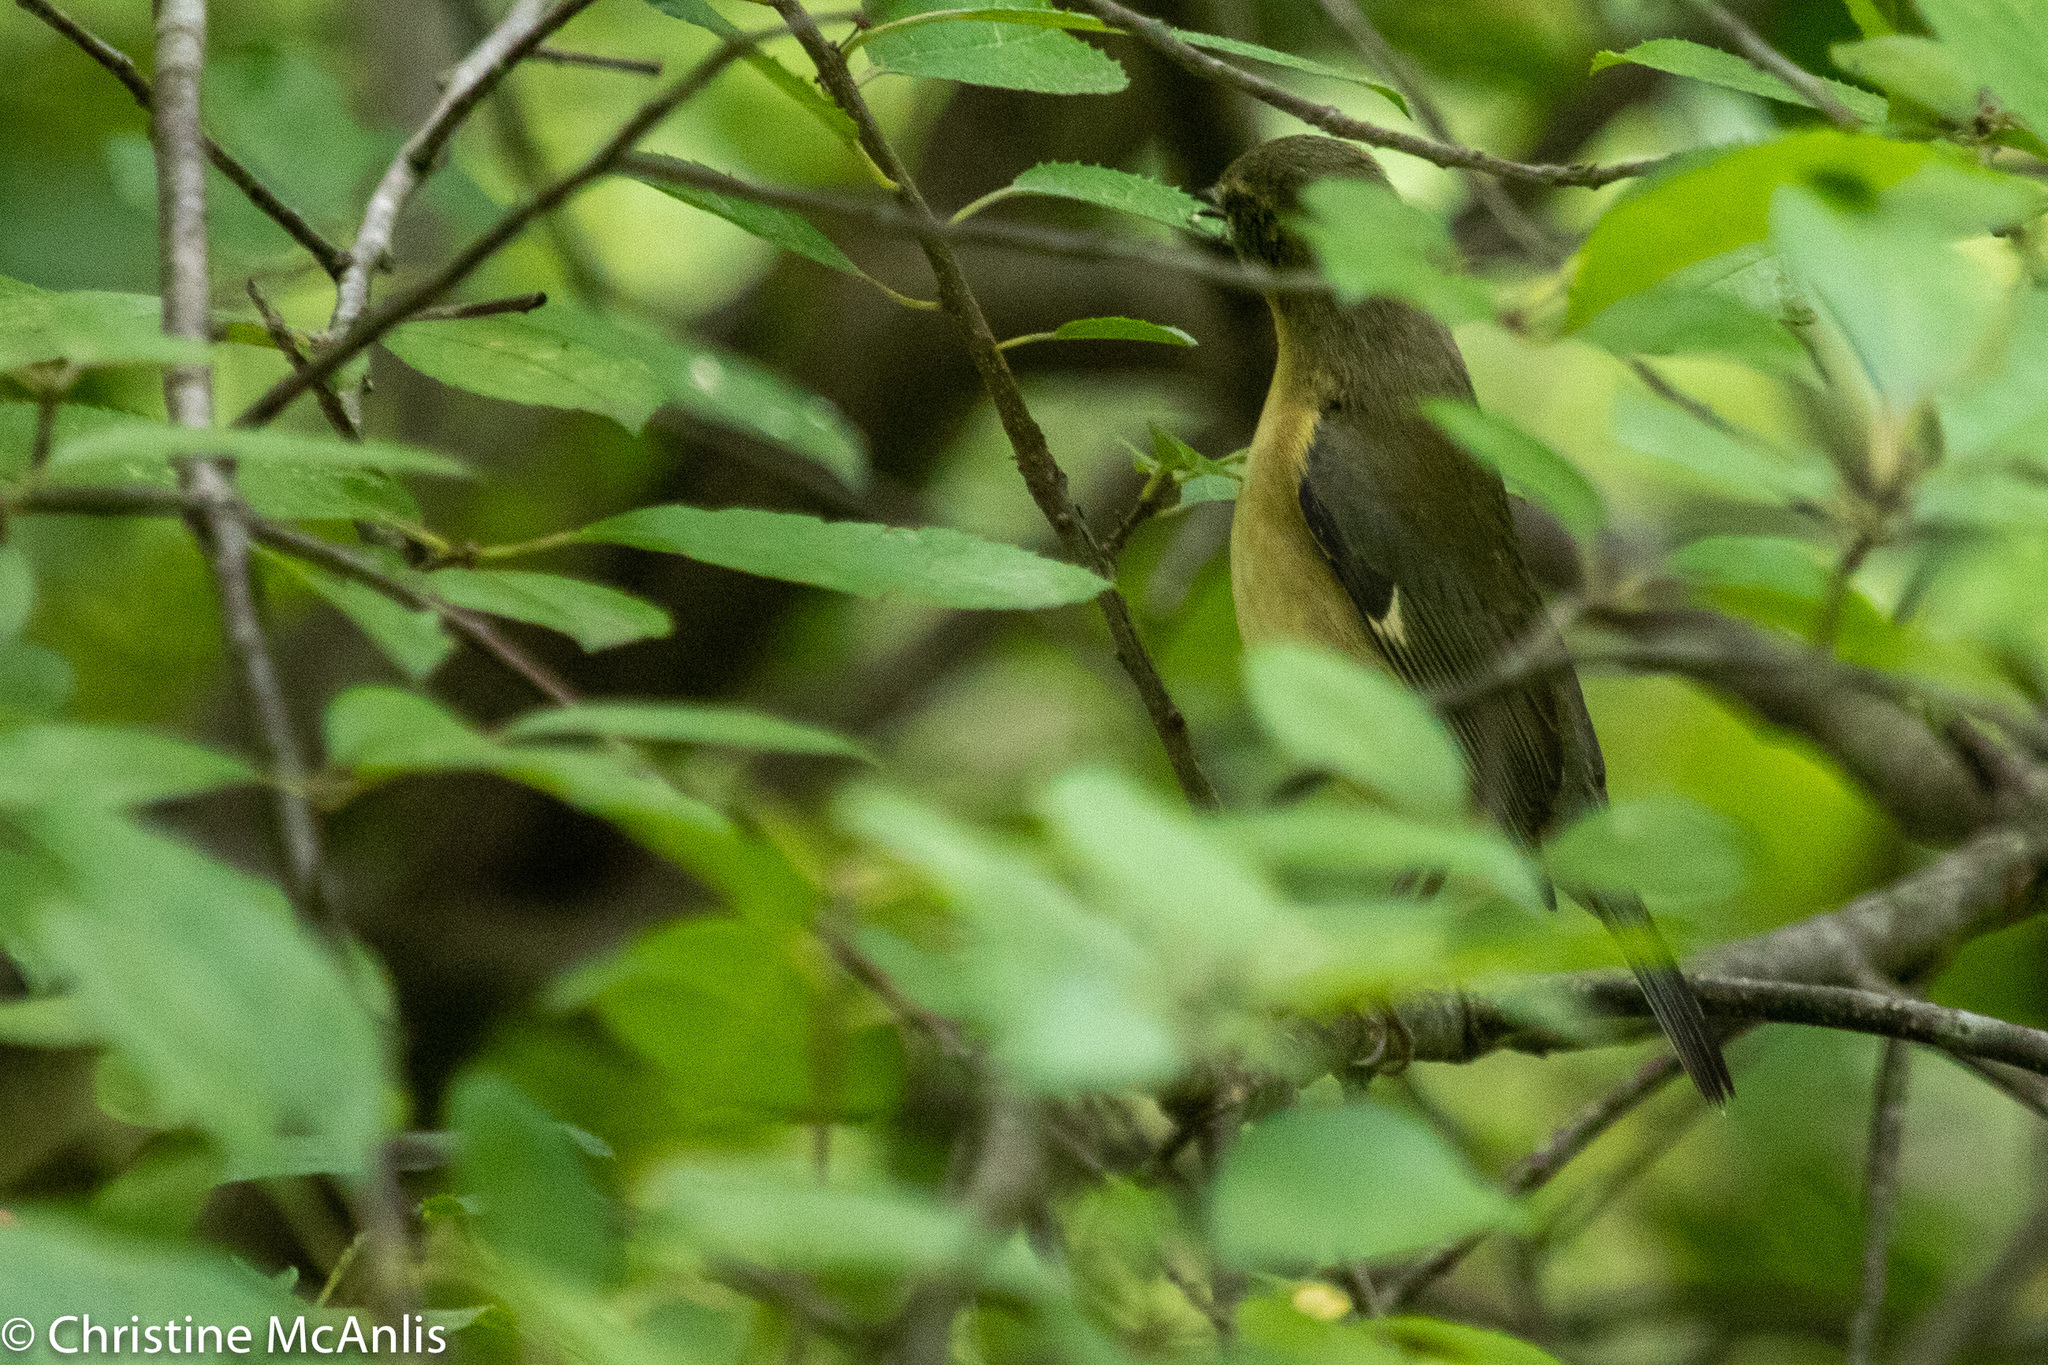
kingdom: Animalia
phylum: Chordata
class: Aves
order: Passeriformes
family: Parulidae
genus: Setophaga
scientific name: Setophaga caerulescens
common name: Black-throated blue warbler
